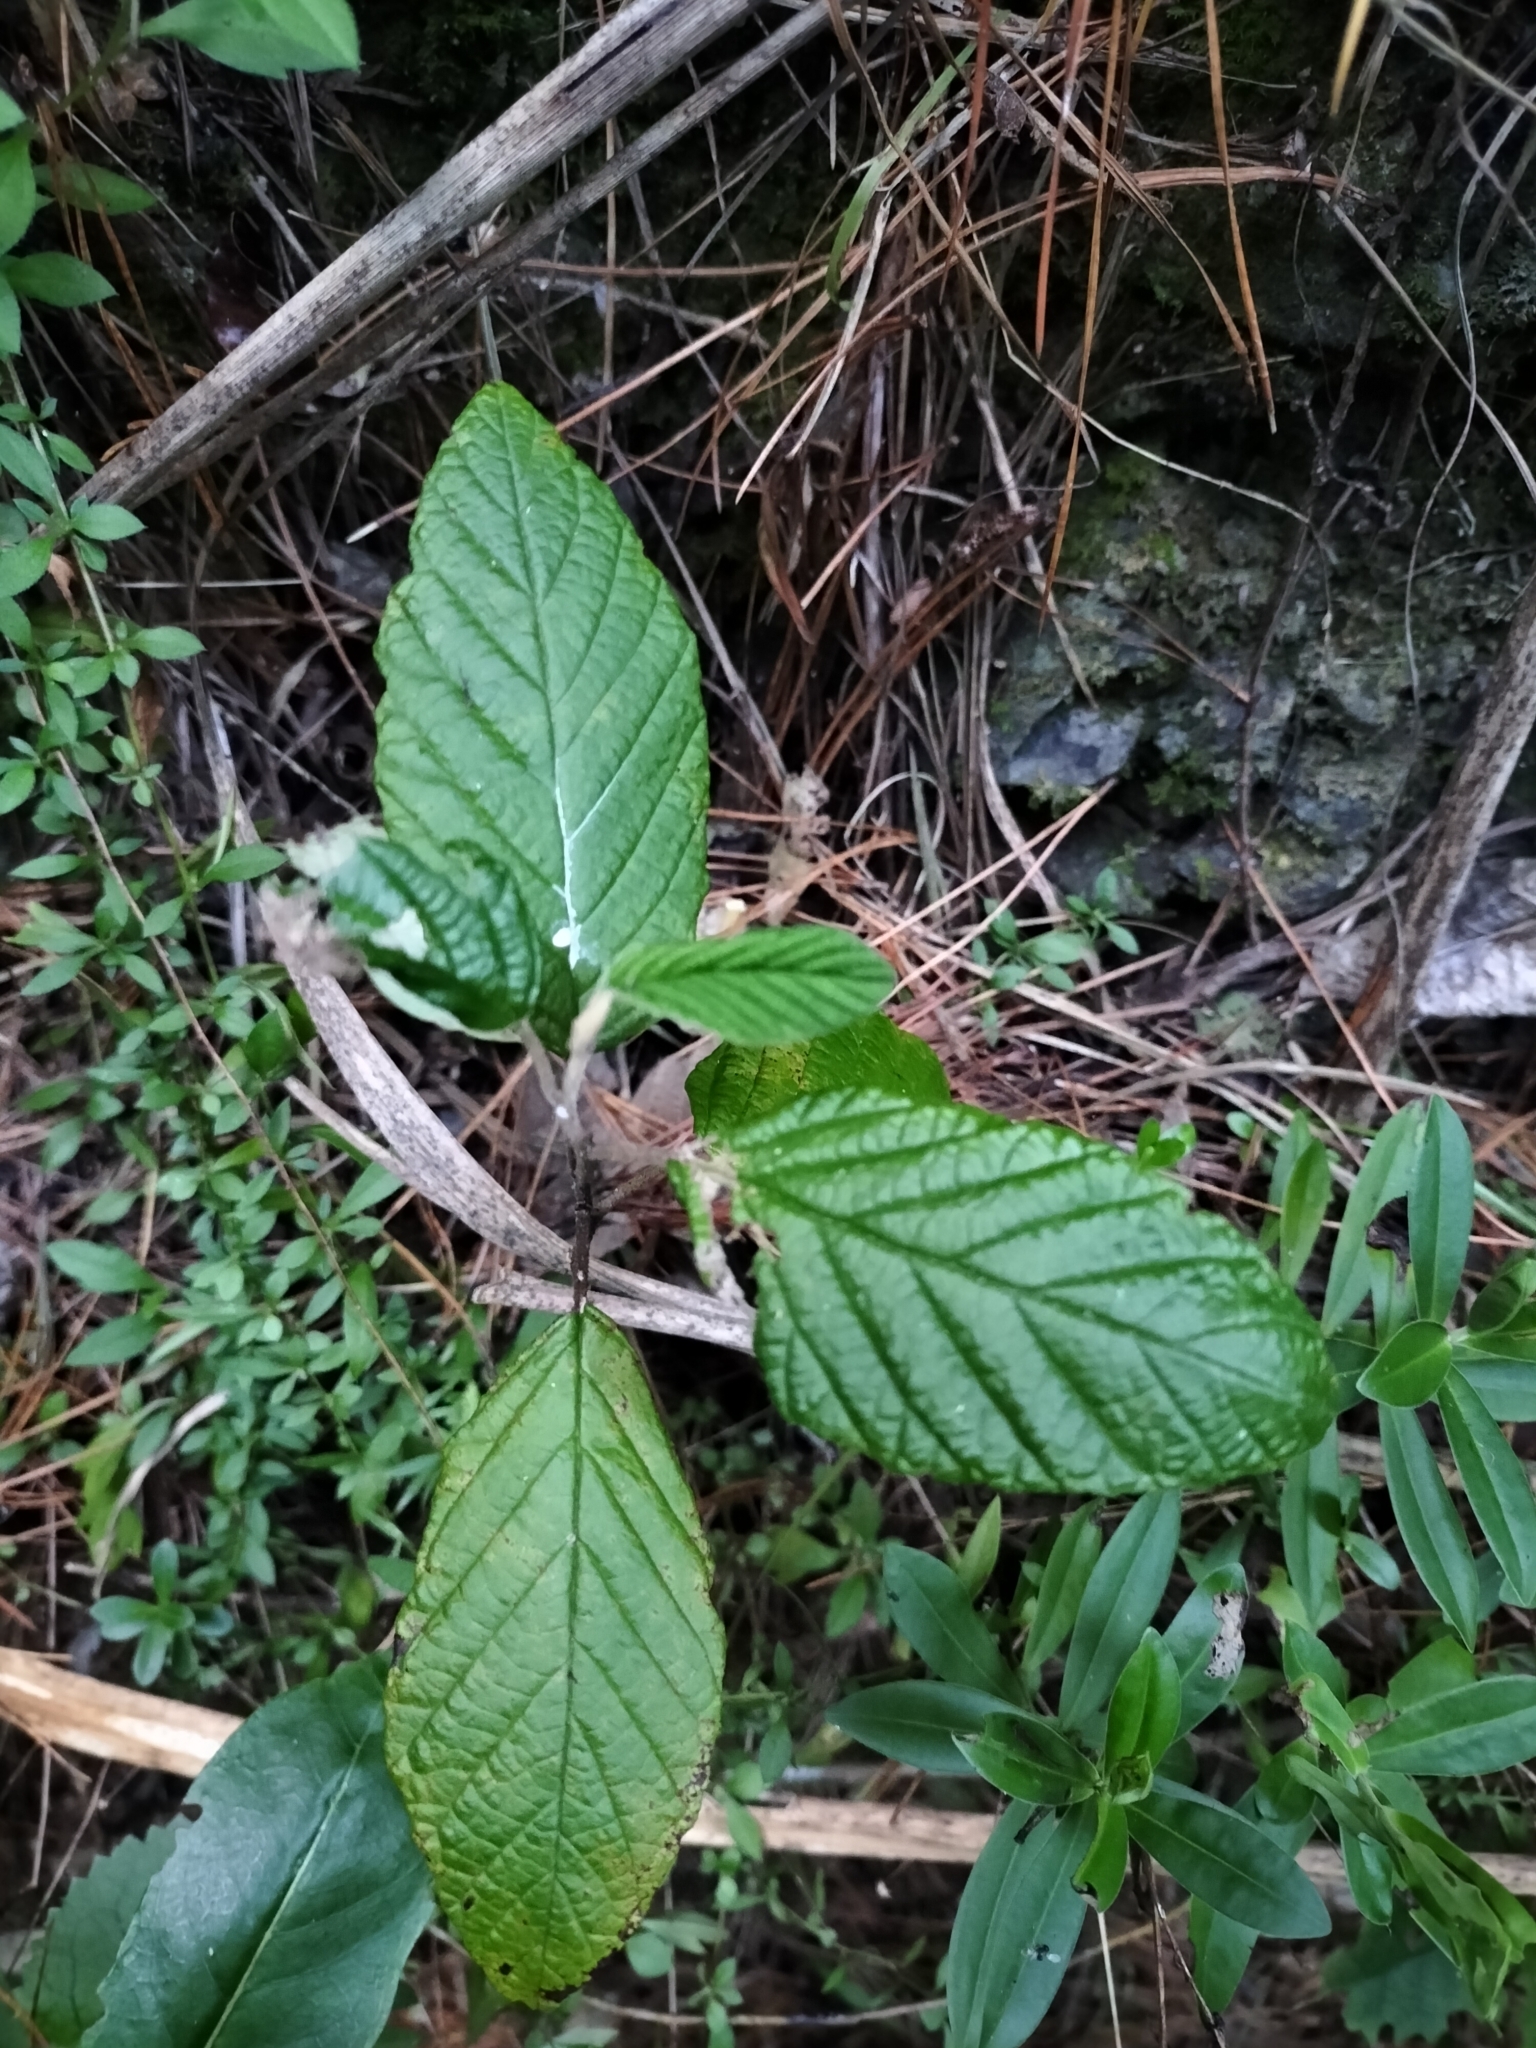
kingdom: Plantae
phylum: Tracheophyta
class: Magnoliopsida
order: Rosales
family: Rhamnaceae
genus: Pomaderris
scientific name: Pomaderris aspera
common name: Hazel pomaderris
